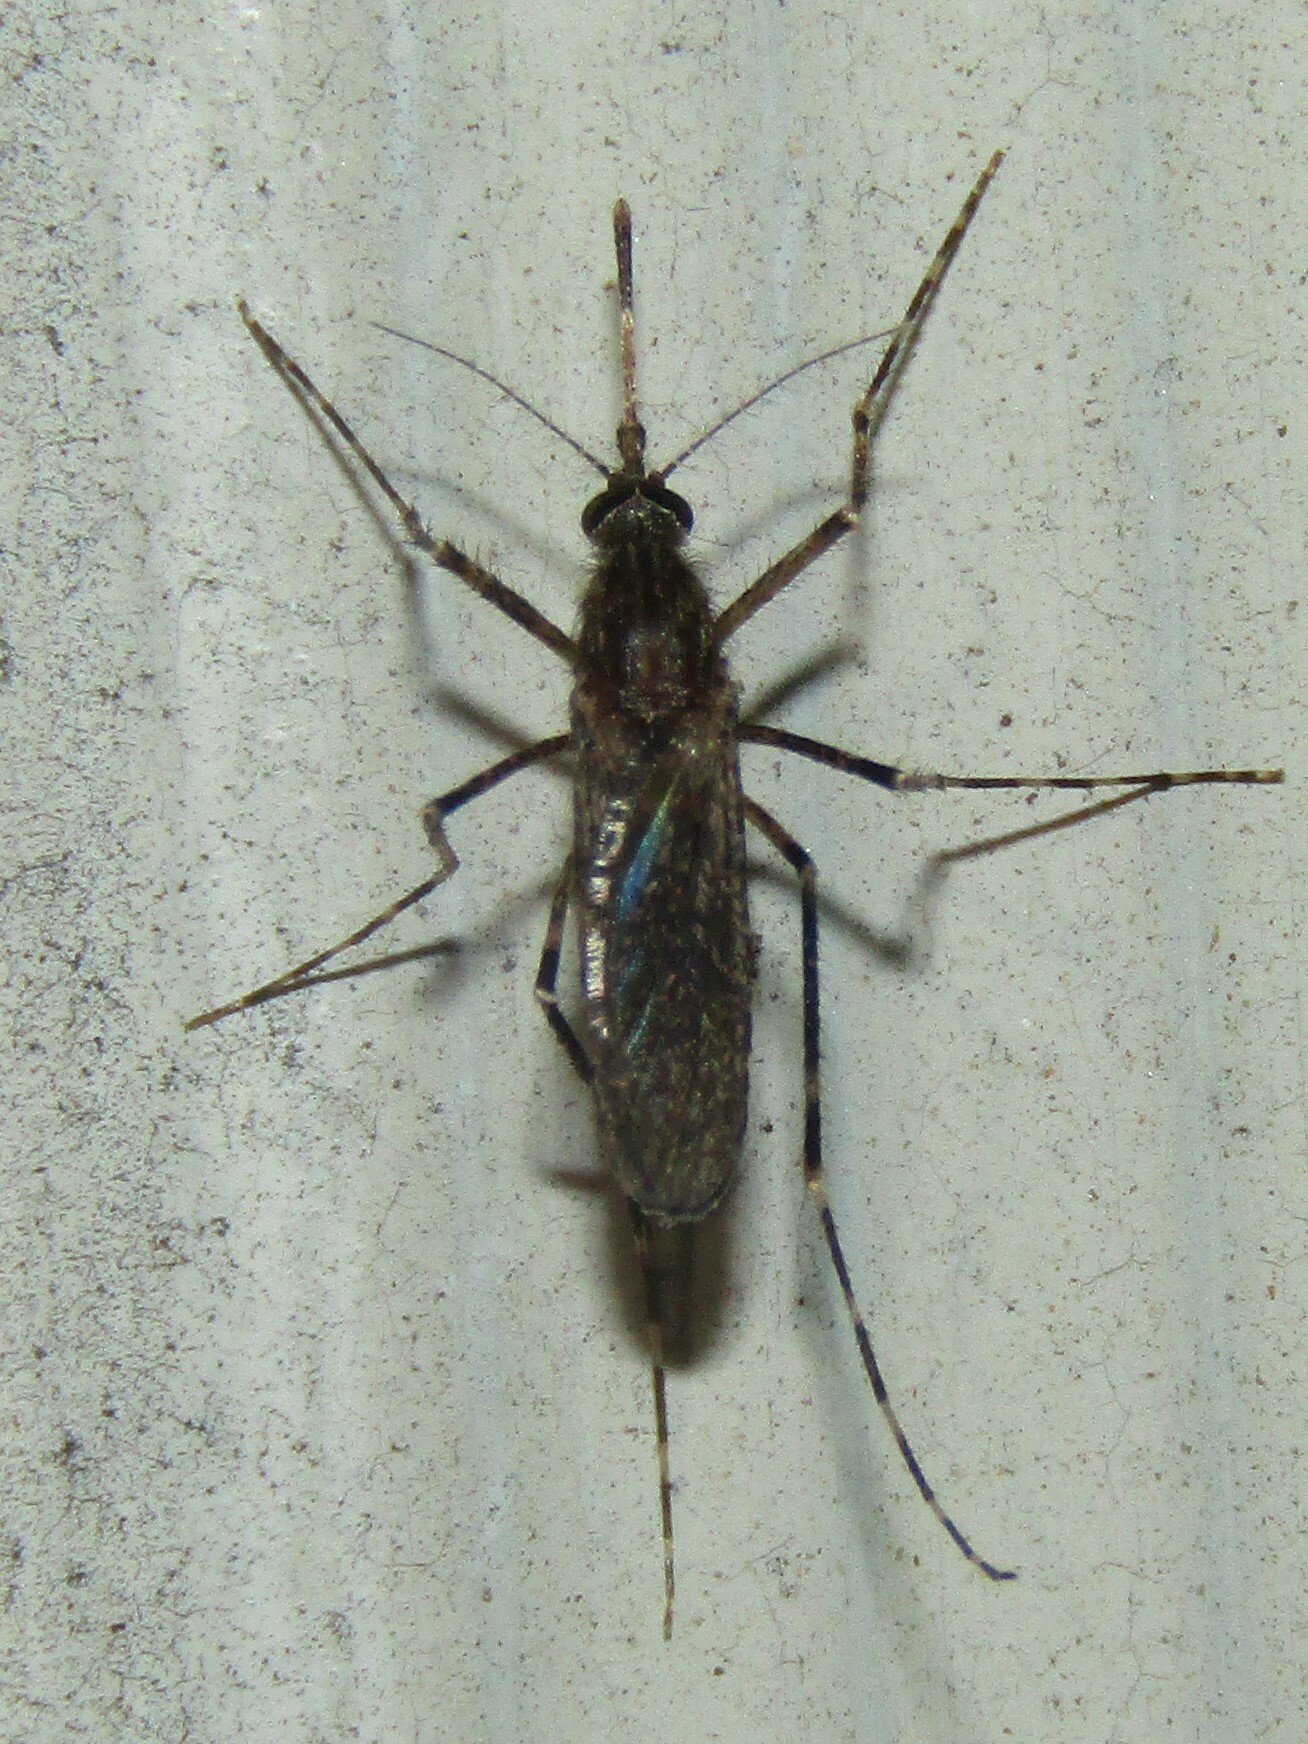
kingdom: Animalia
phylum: Arthropoda
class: Insecta
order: Diptera
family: Culicidae
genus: Coquillettidia
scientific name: Coquillettidia perturbans
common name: Cattail mosquito
